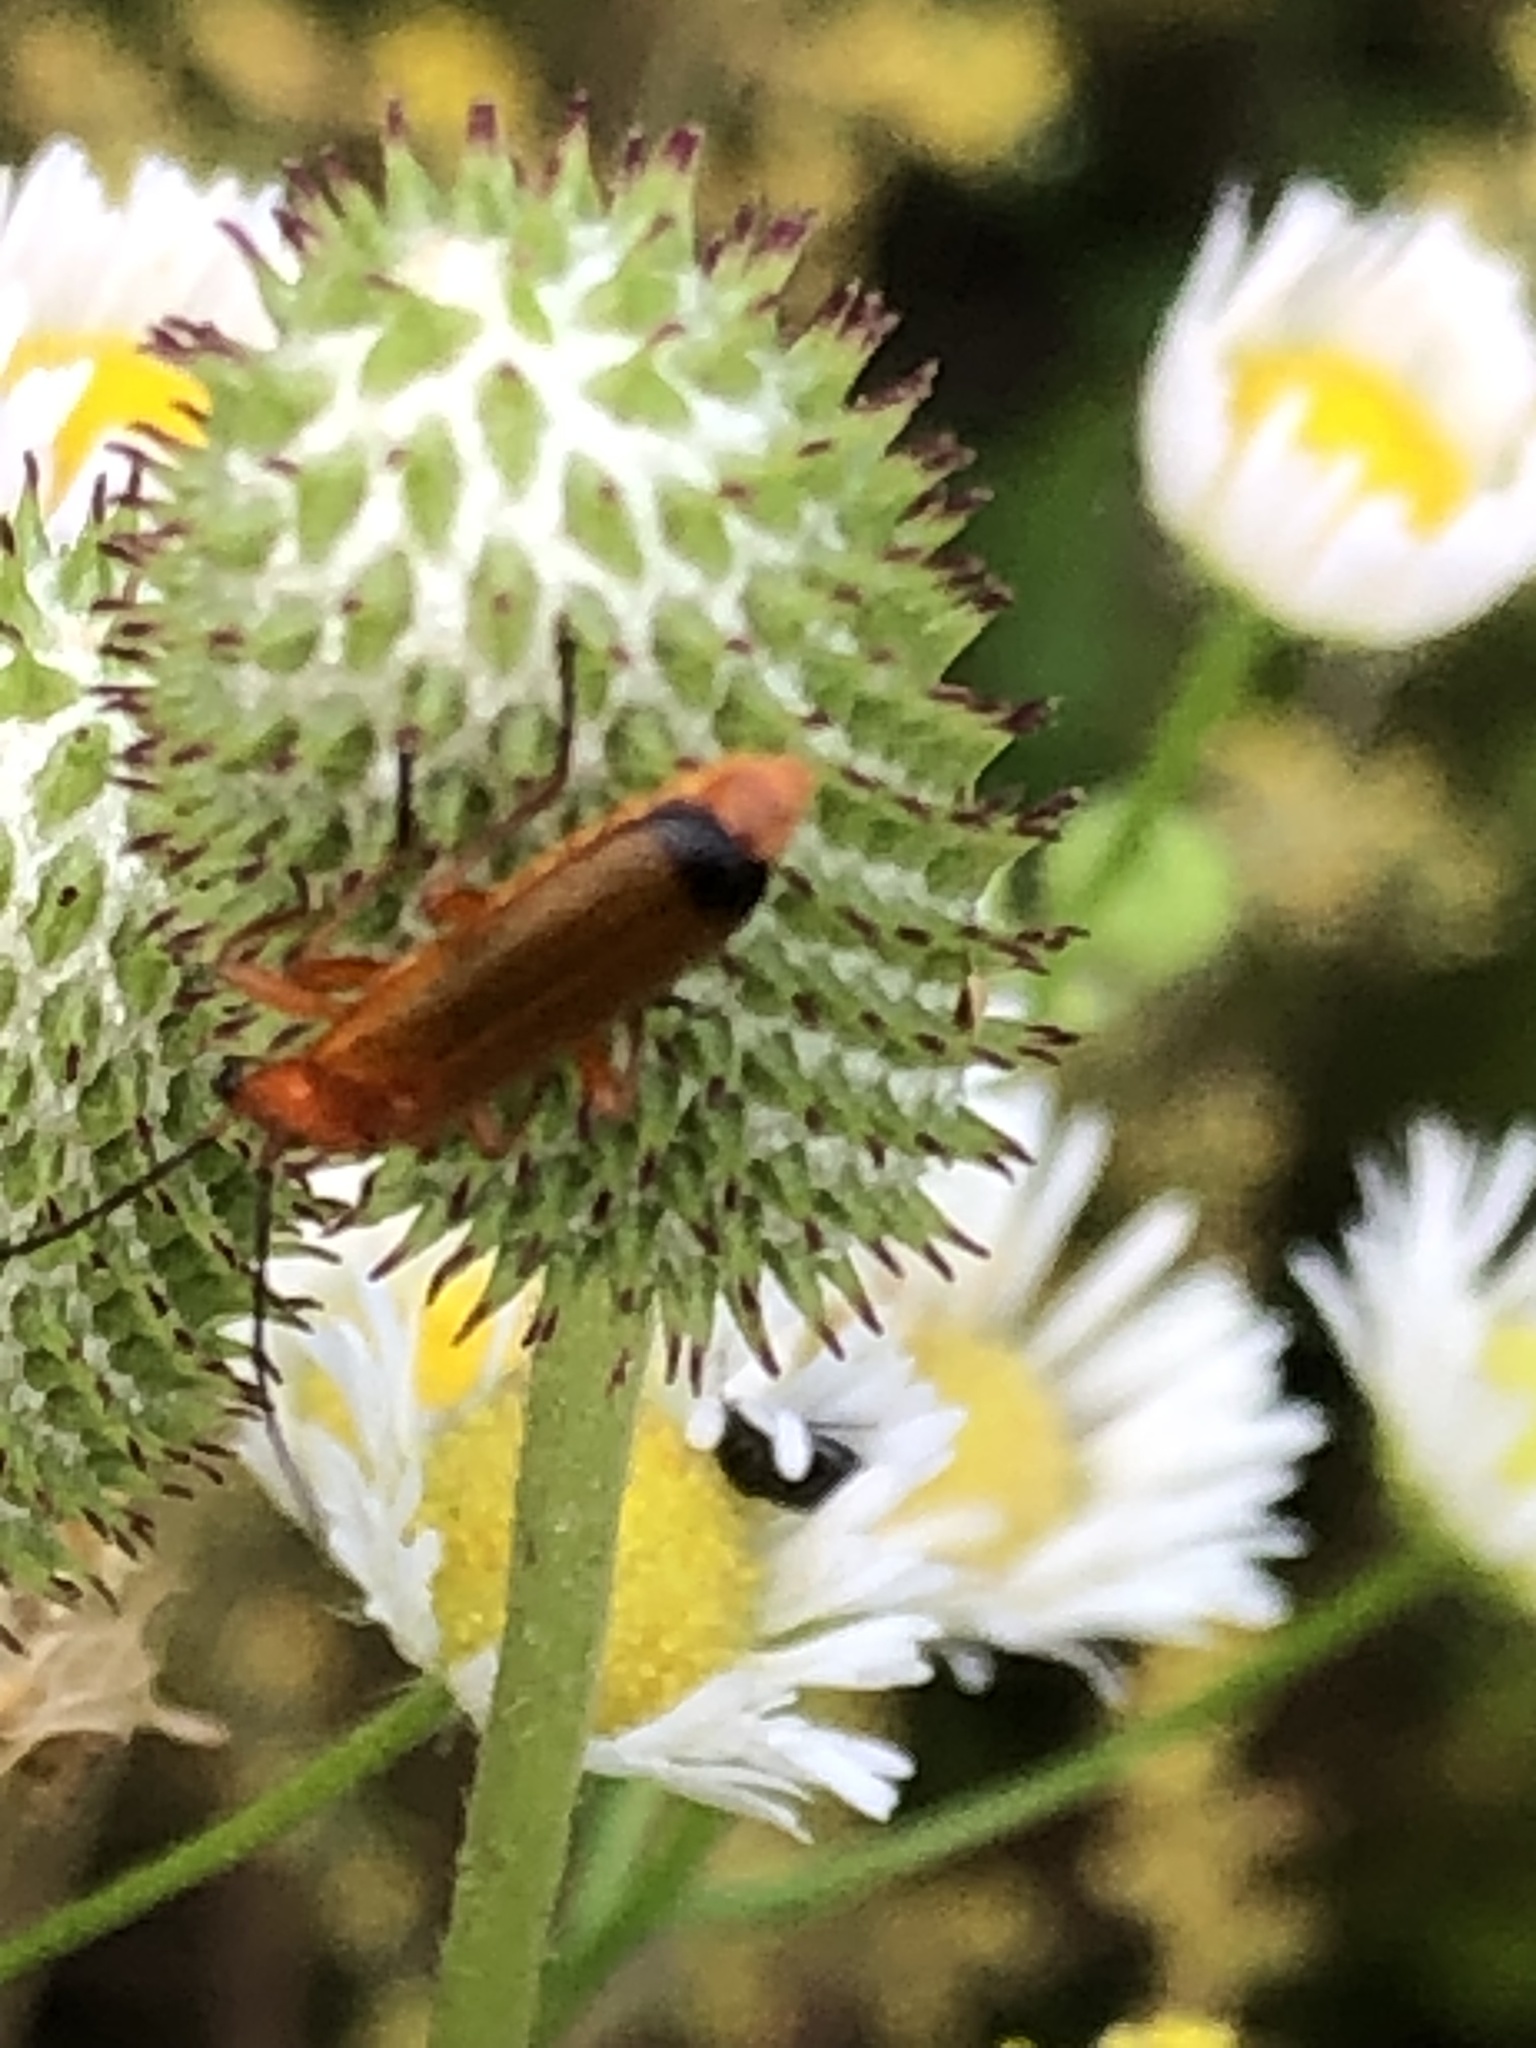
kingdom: Animalia
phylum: Arthropoda
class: Insecta
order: Coleoptera
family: Cantharidae
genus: Rhagonycha
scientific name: Rhagonycha fulva
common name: Common red soldier beetle
